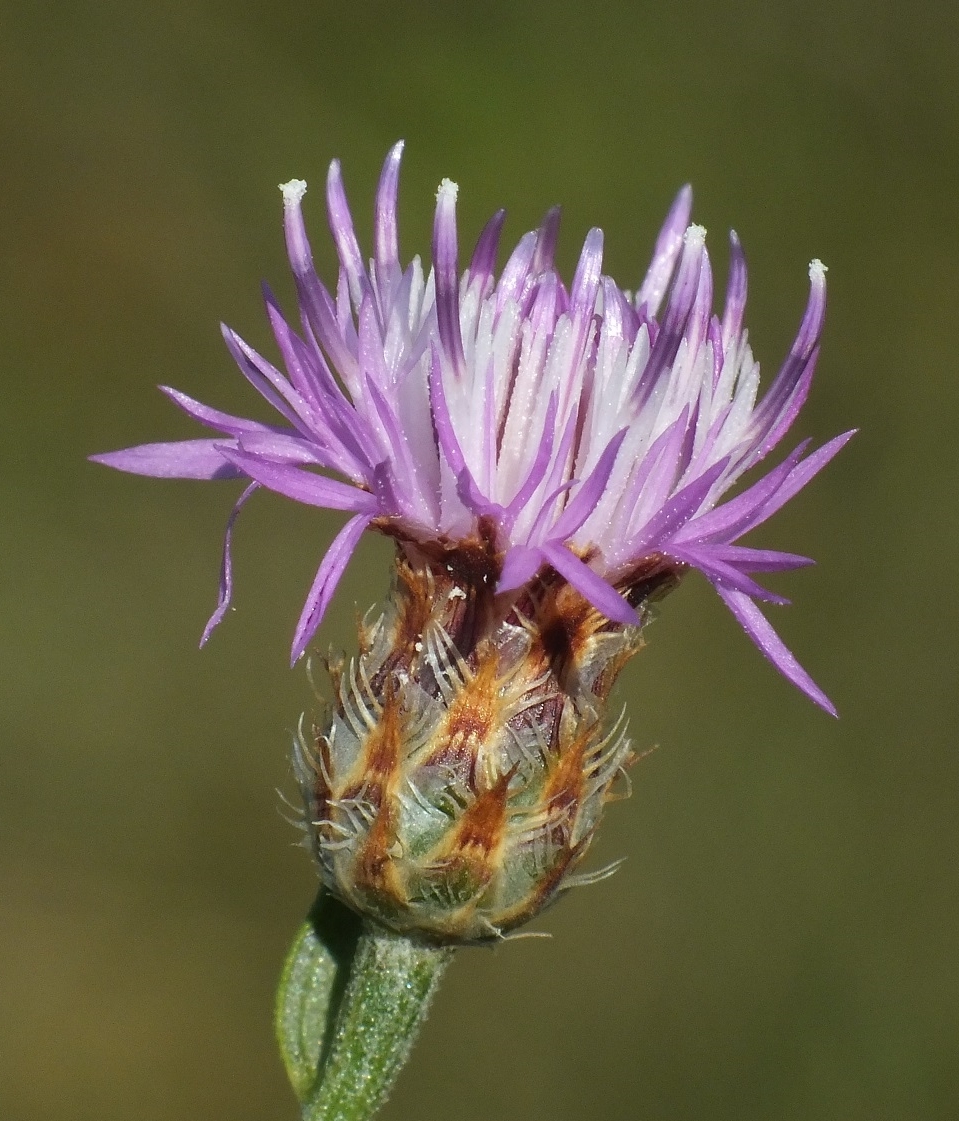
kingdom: Plantae
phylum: Tracheophyta
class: Magnoliopsida
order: Asterales
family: Asteraceae
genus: Centaurea
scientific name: Centaurea caprina
